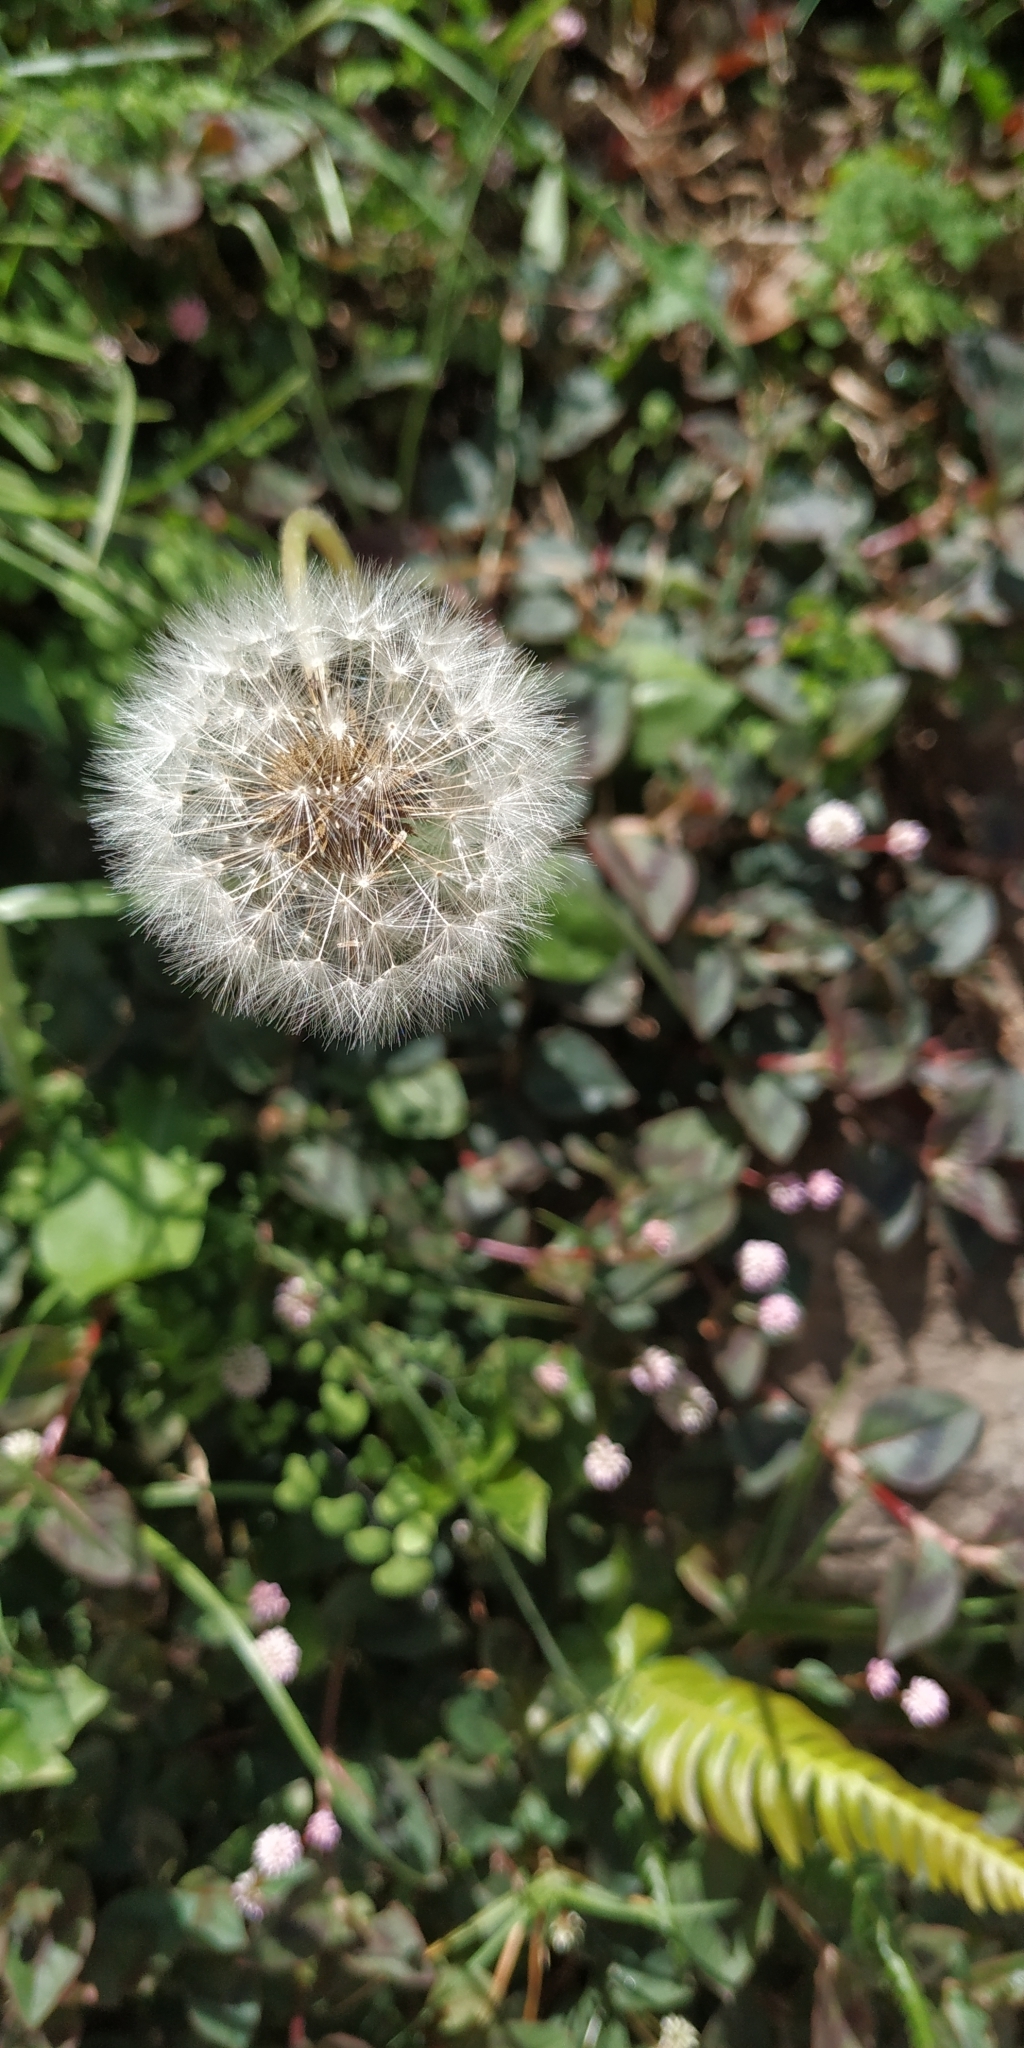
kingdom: Plantae
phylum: Tracheophyta
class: Magnoliopsida
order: Asterales
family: Asteraceae
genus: Taraxacum
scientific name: Taraxacum officinale
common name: Common dandelion
